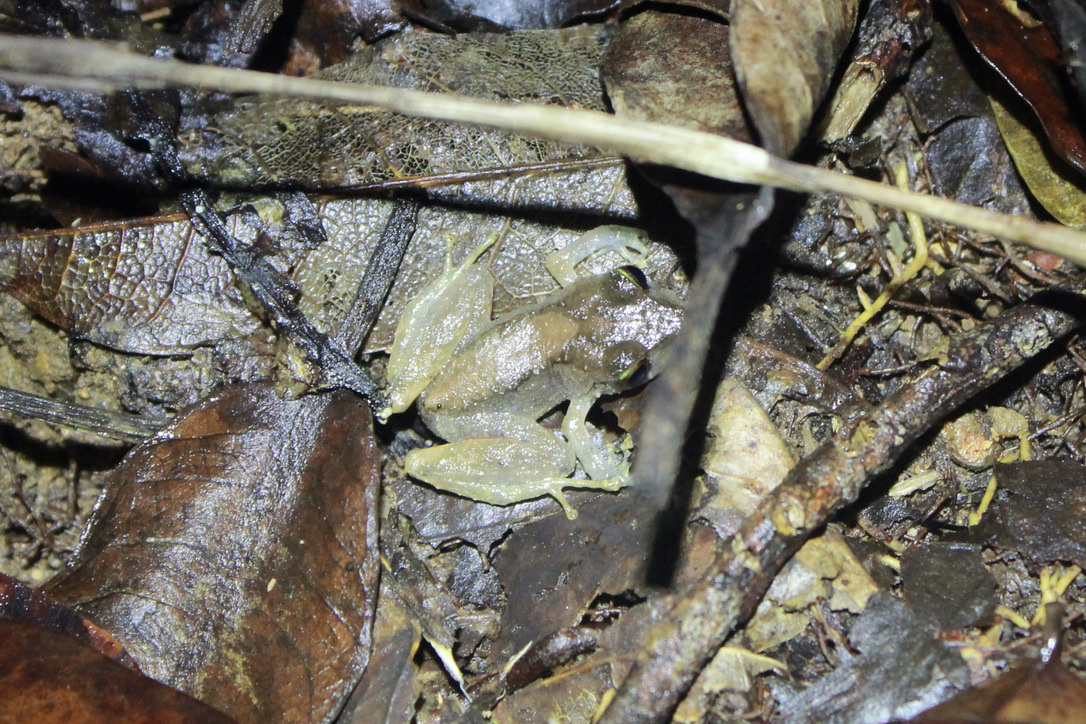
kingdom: Animalia
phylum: Chordata
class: Amphibia
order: Anura
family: Craugastoridae
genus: Pristimantis
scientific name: Pristimantis urichi
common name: Lesser antilles robber frog
